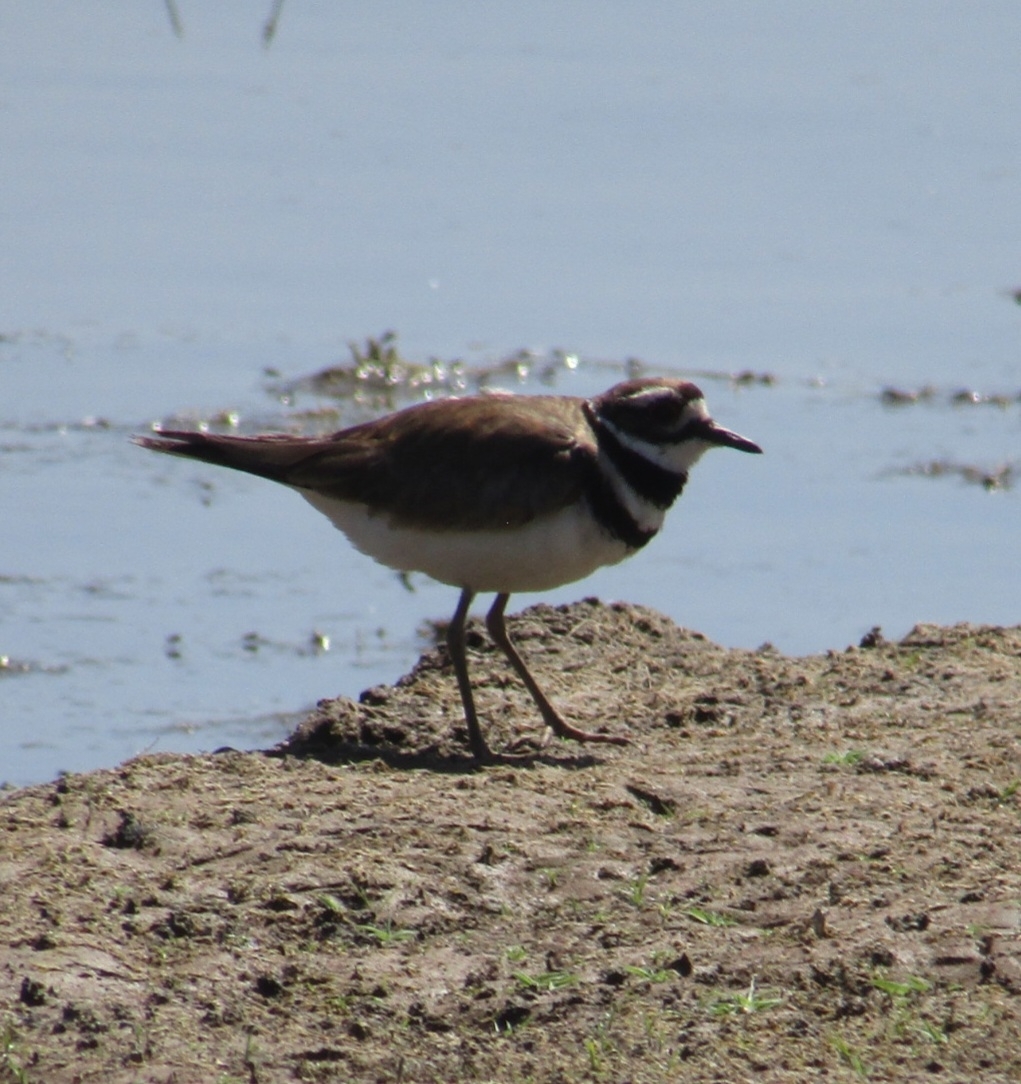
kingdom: Animalia
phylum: Chordata
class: Aves
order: Charadriiformes
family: Charadriidae
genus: Charadrius
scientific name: Charadrius vociferus
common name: Killdeer
